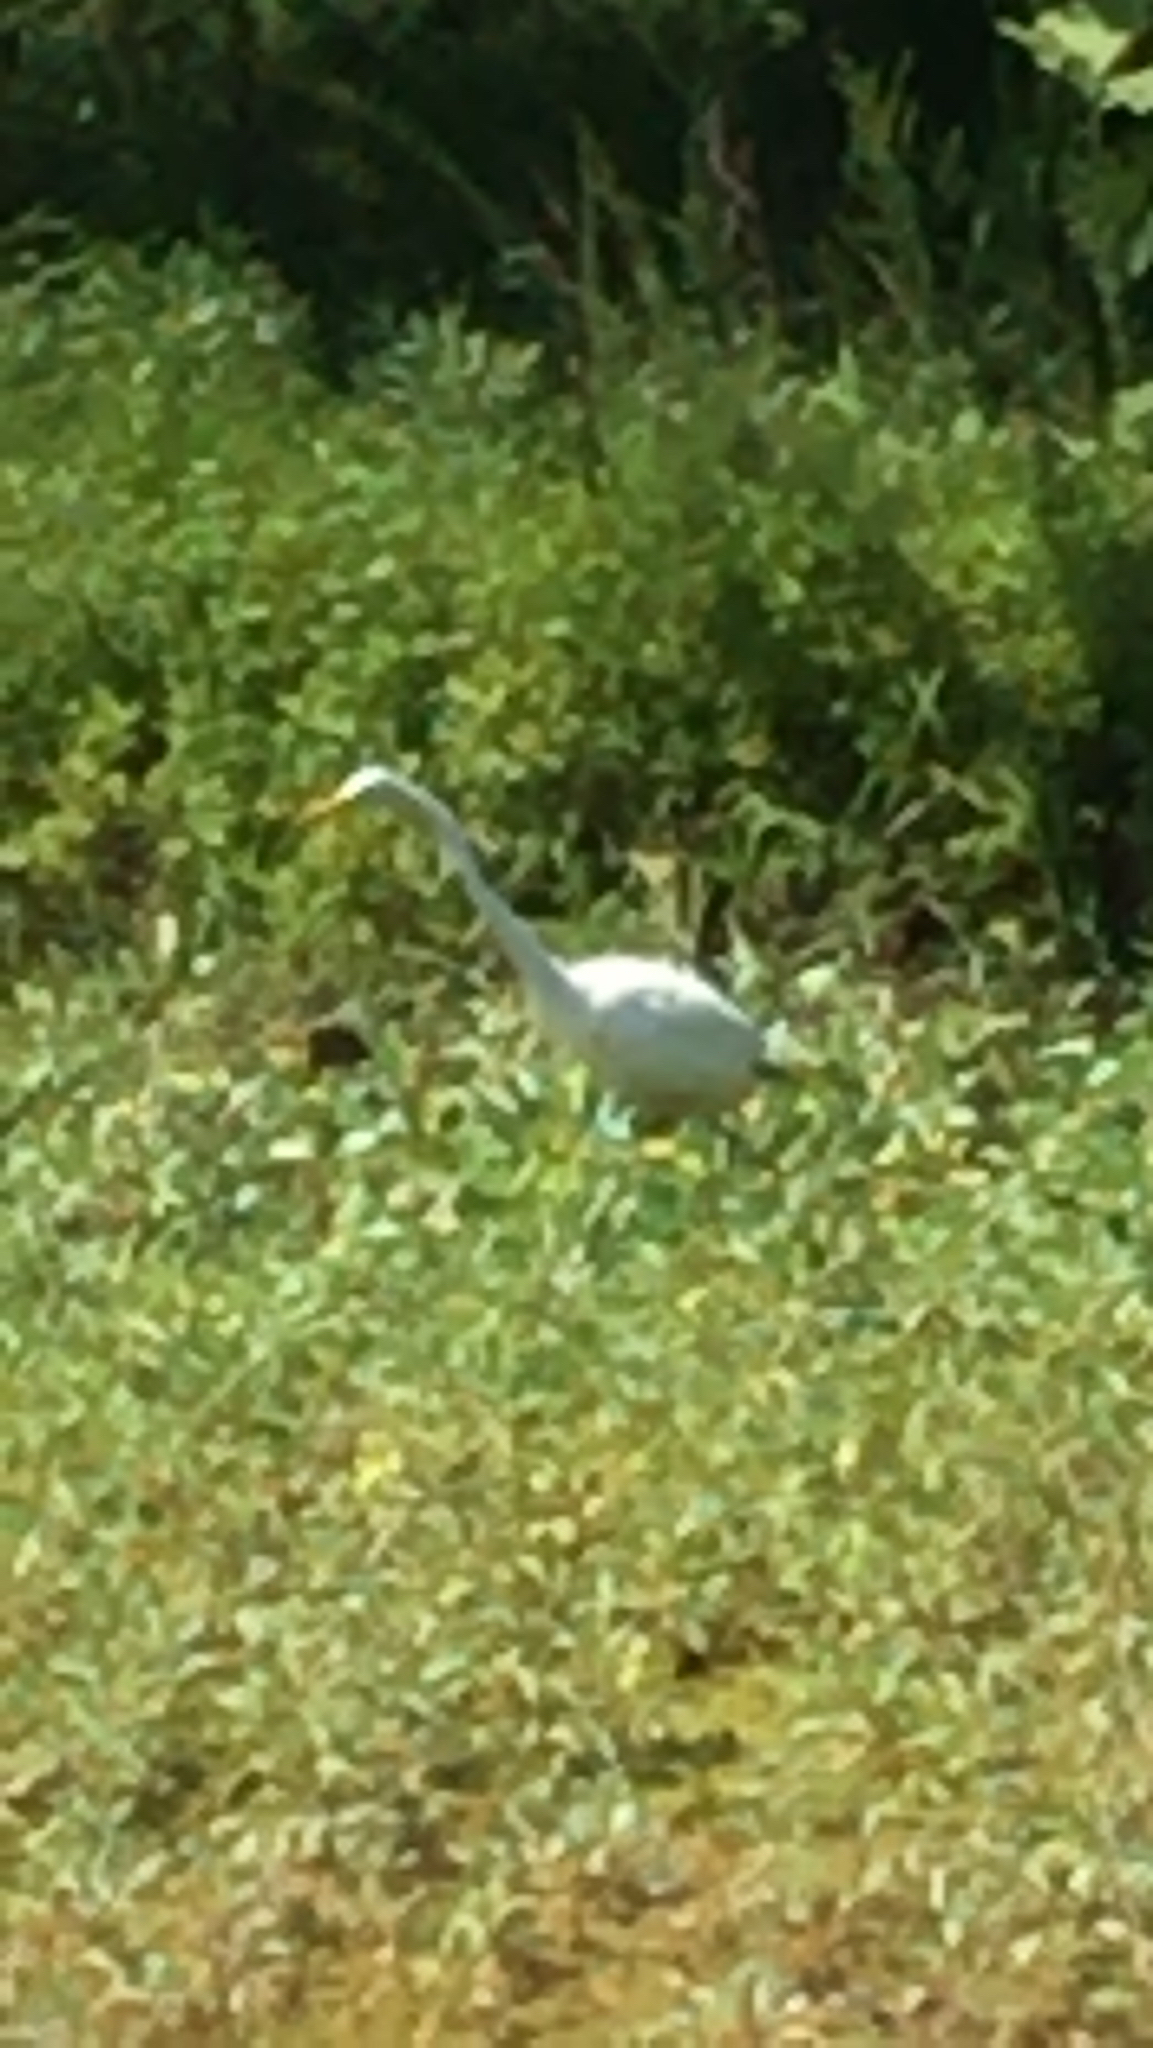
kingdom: Animalia
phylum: Chordata
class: Aves
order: Pelecaniformes
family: Ardeidae
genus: Ardea
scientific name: Ardea alba
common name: Great egret
